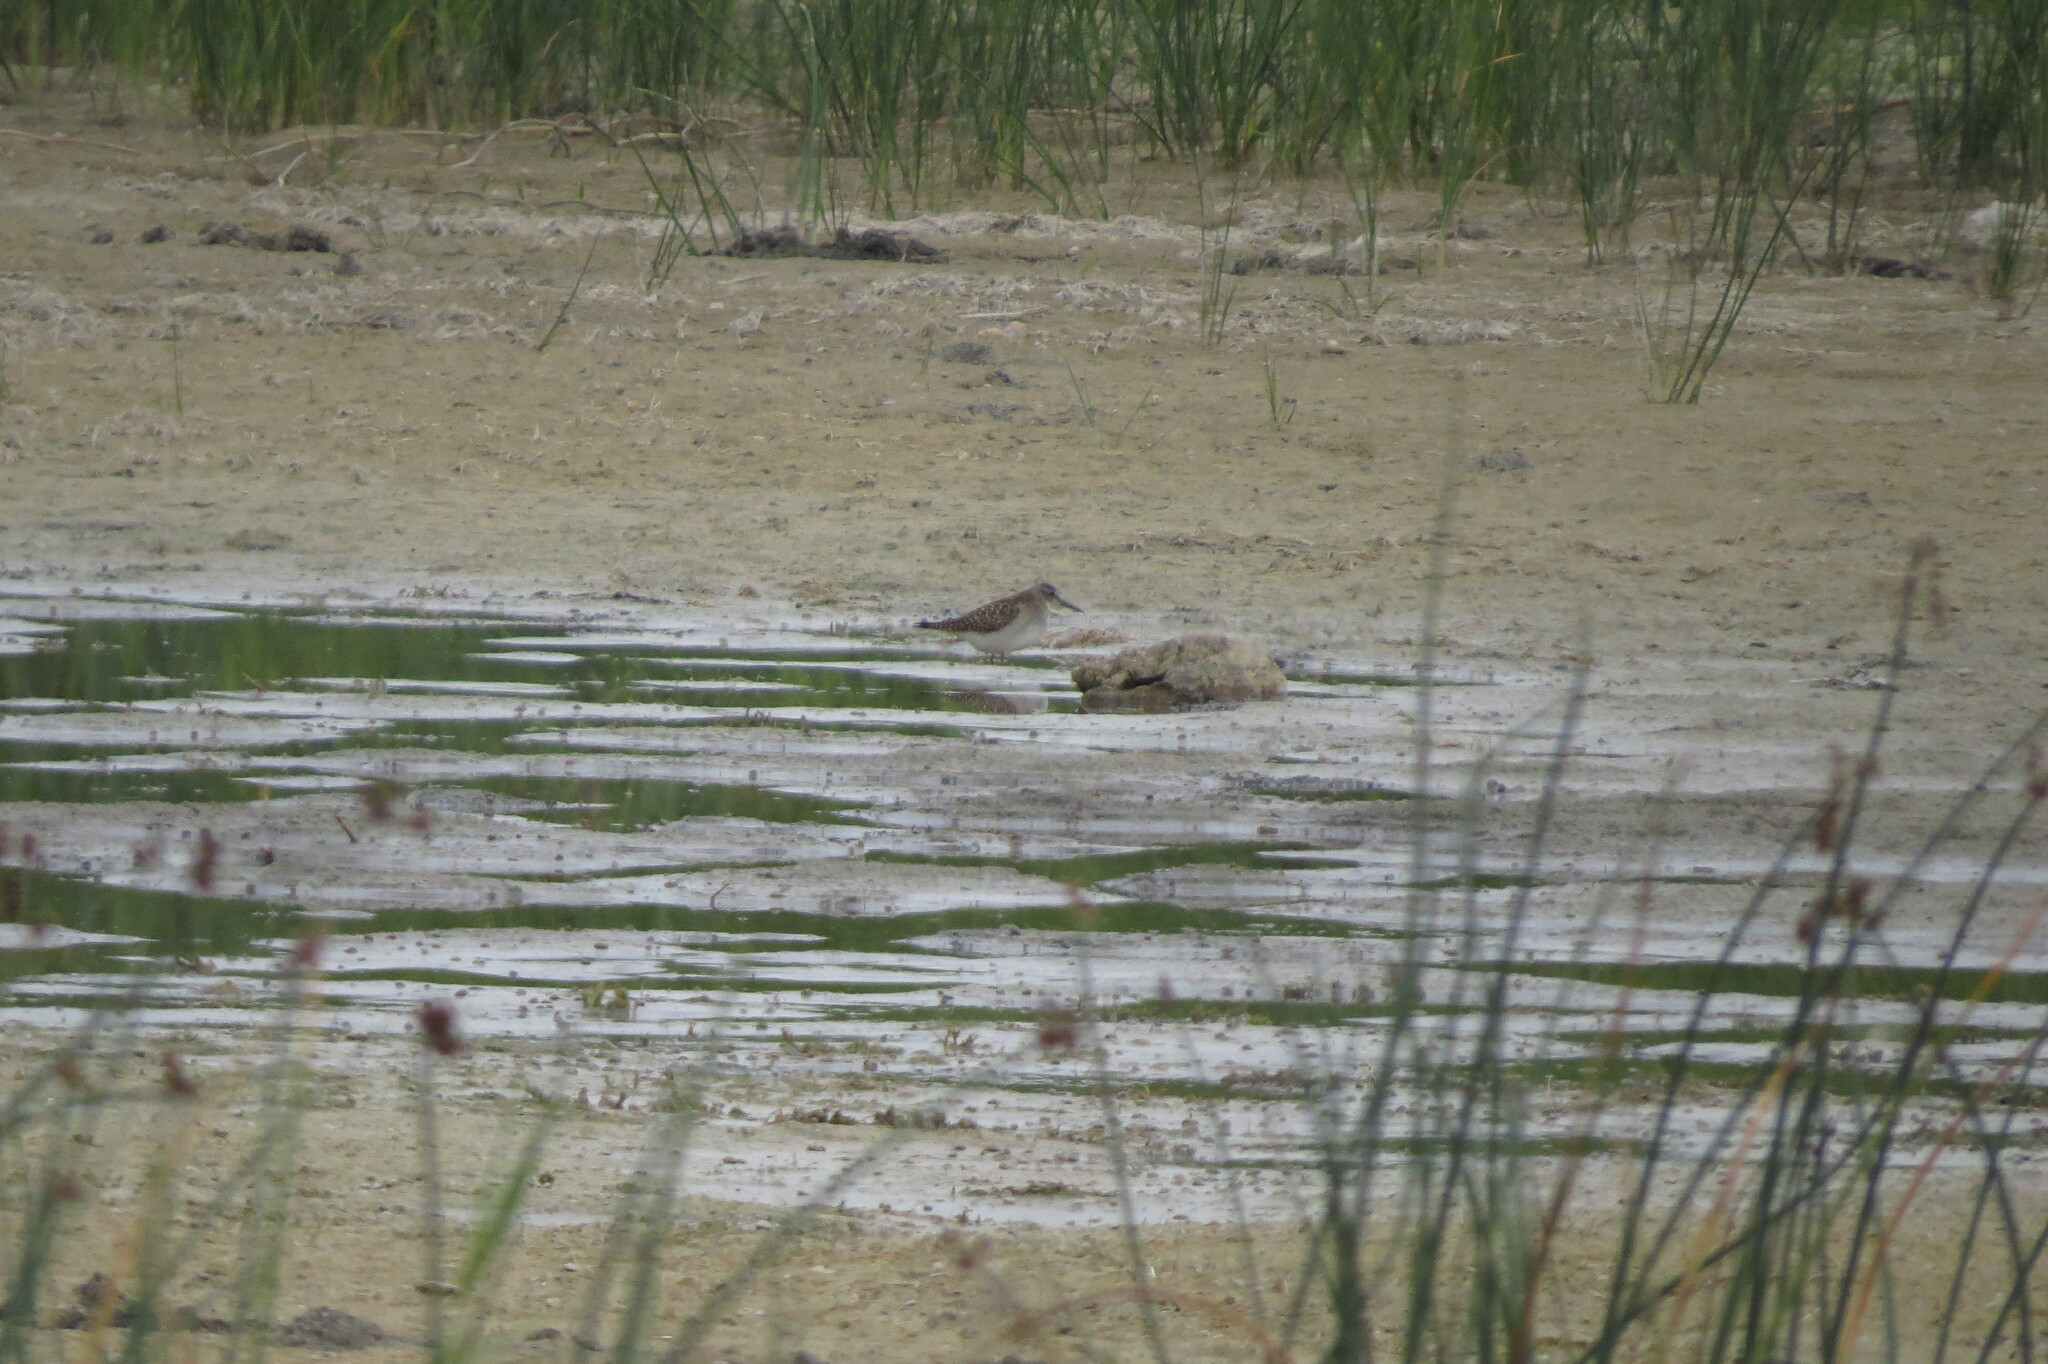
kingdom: Animalia
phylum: Chordata
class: Aves
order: Charadriiformes
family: Scolopacidae
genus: Tringa
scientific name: Tringa glareola
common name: Wood sandpiper
